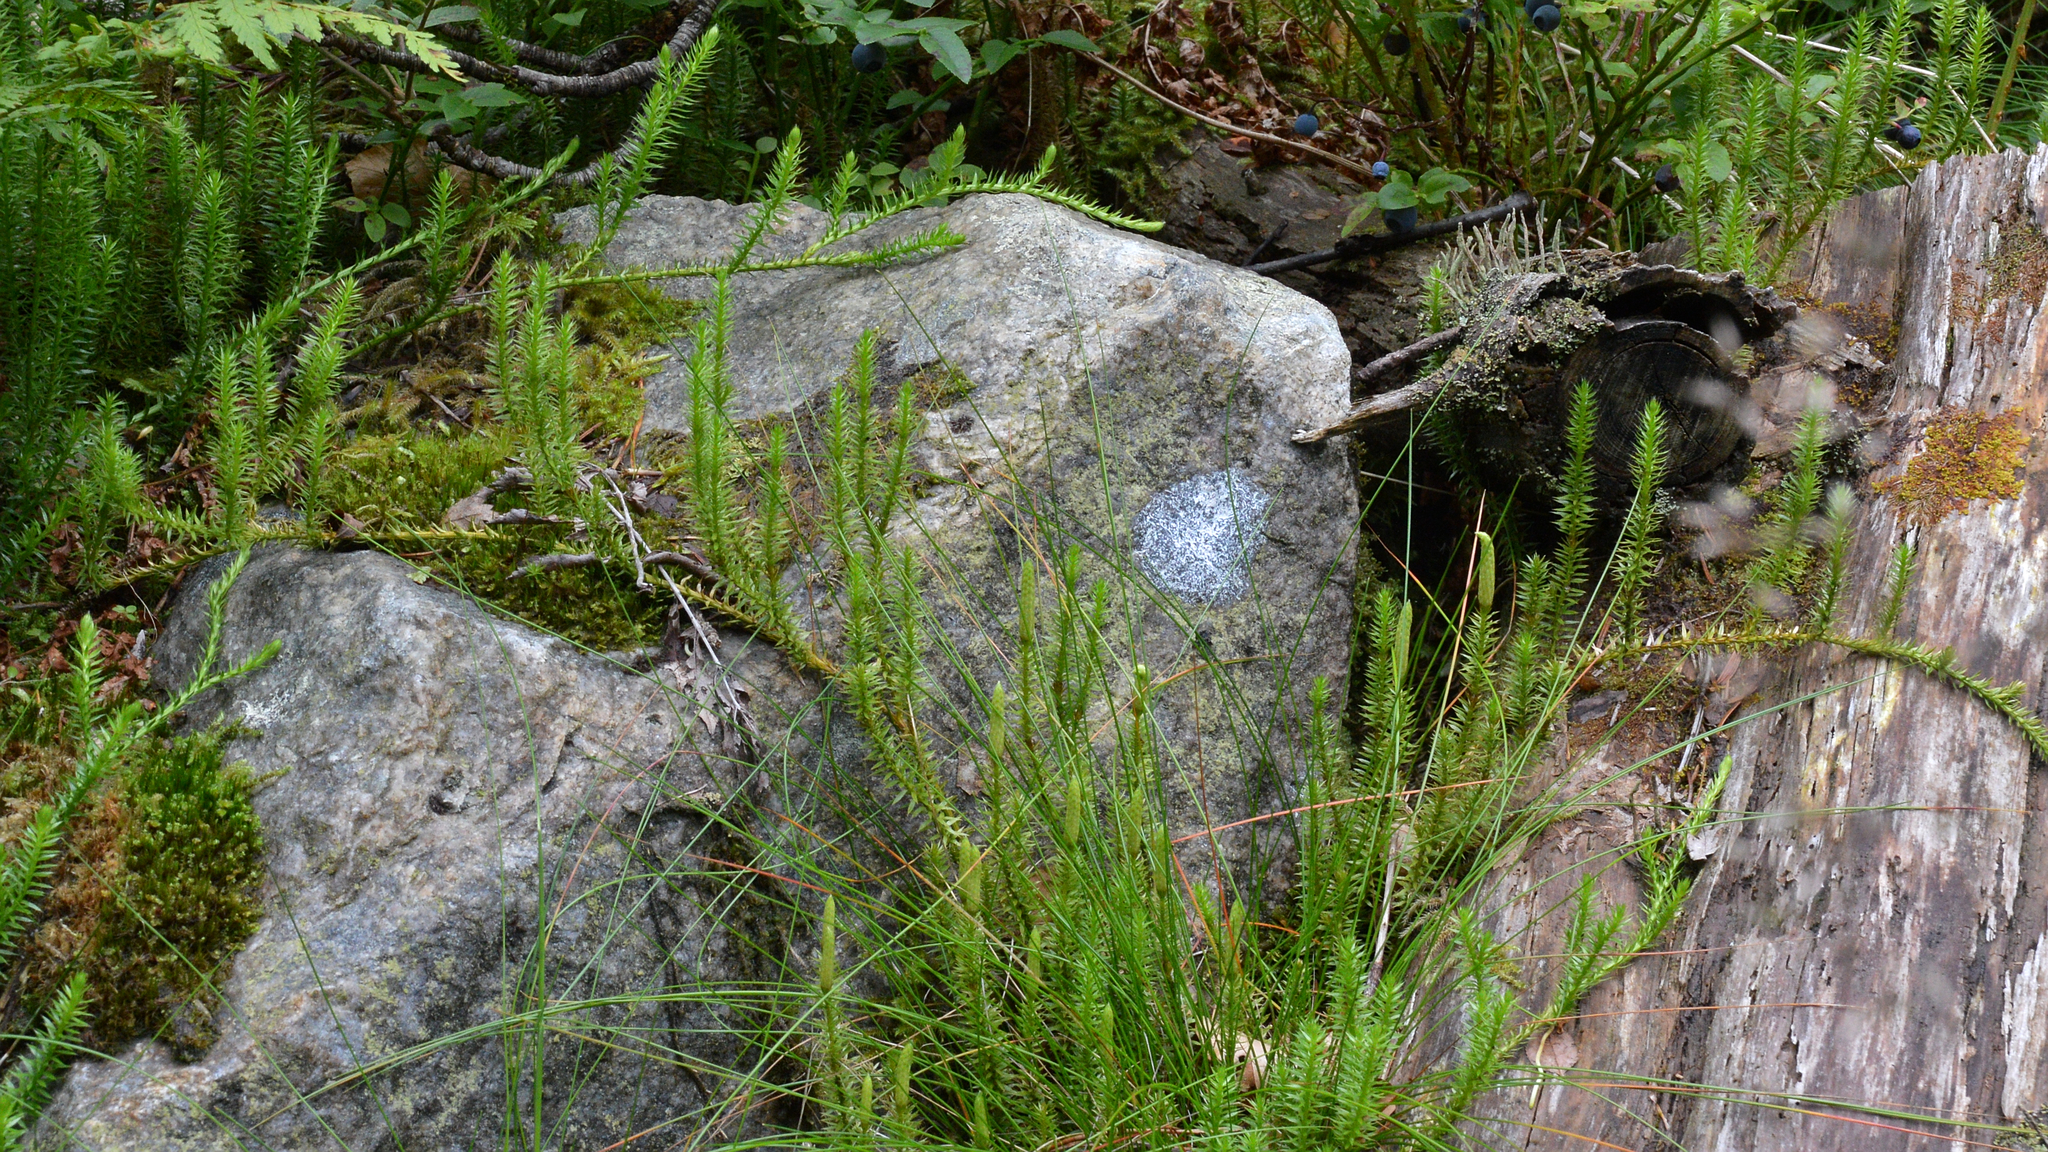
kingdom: Plantae
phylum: Tracheophyta
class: Lycopodiopsida
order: Lycopodiales
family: Lycopodiaceae
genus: Spinulum
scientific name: Spinulum annotinum
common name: Interrupted club-moss
